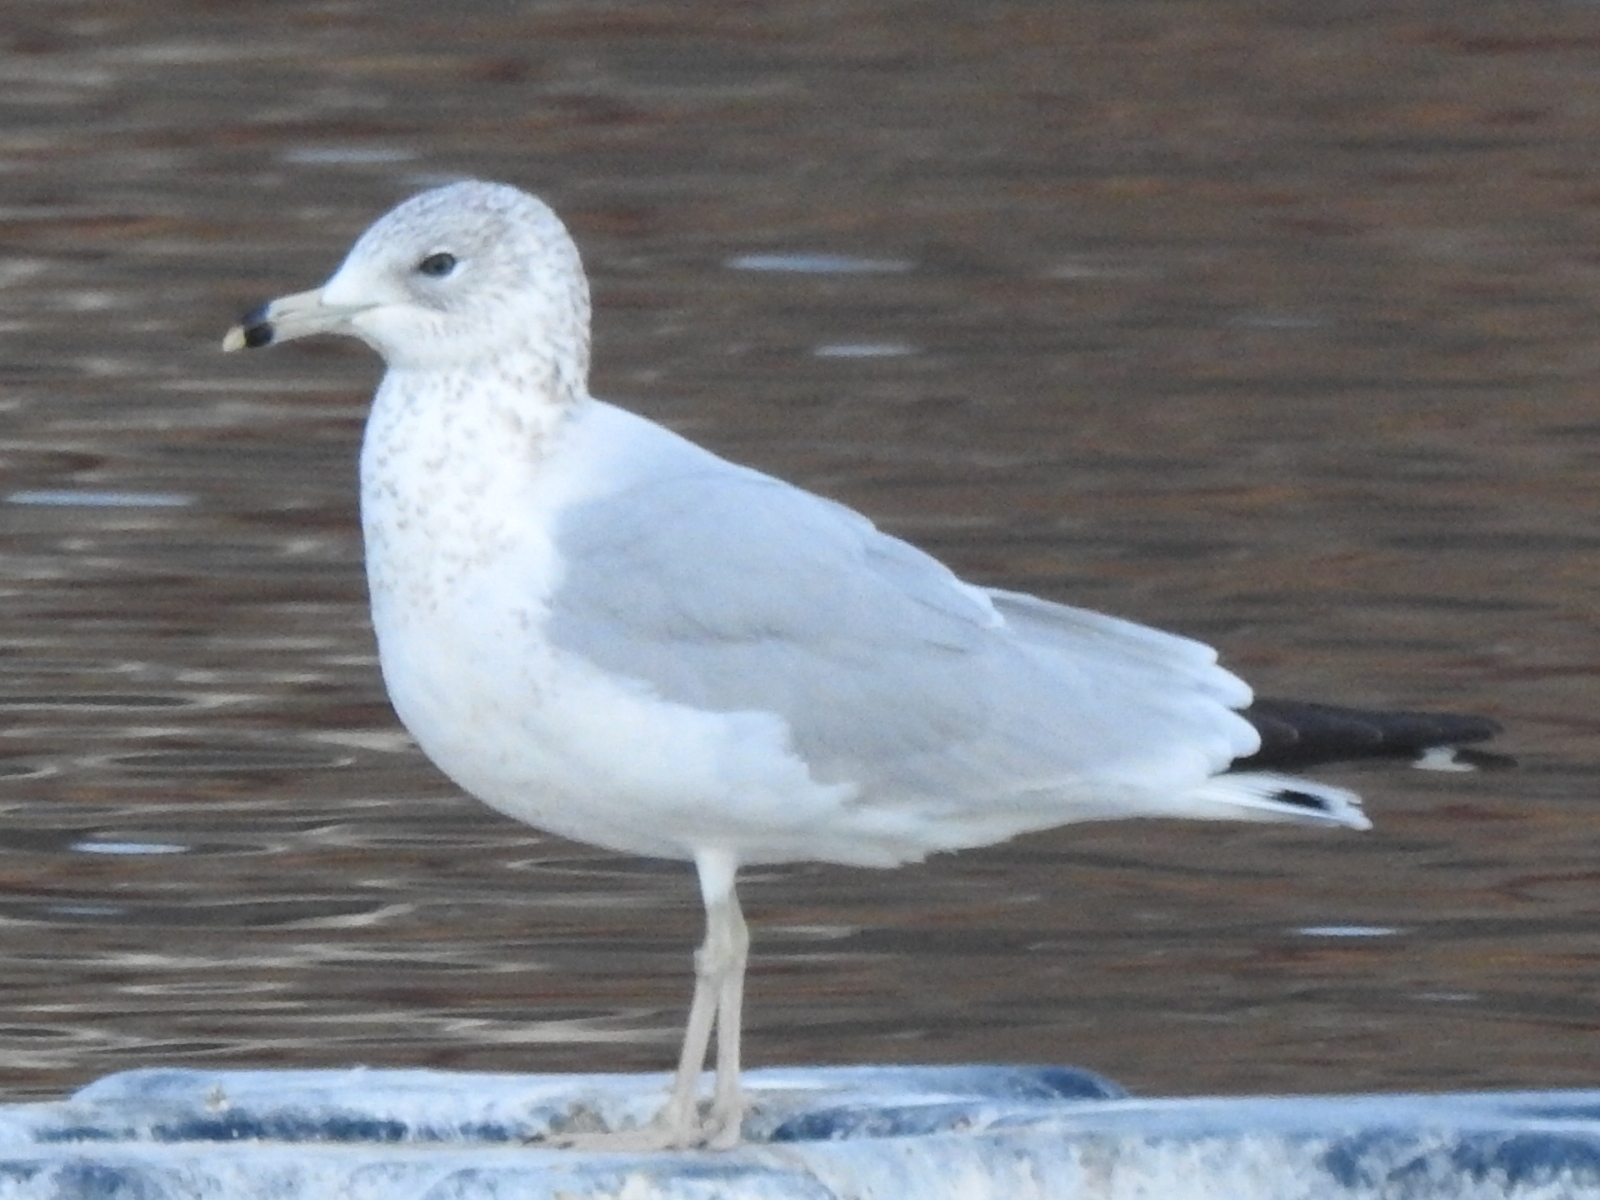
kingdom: Animalia
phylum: Chordata
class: Aves
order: Charadriiformes
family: Laridae
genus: Larus
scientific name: Larus delawarensis
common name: Ring-billed gull
